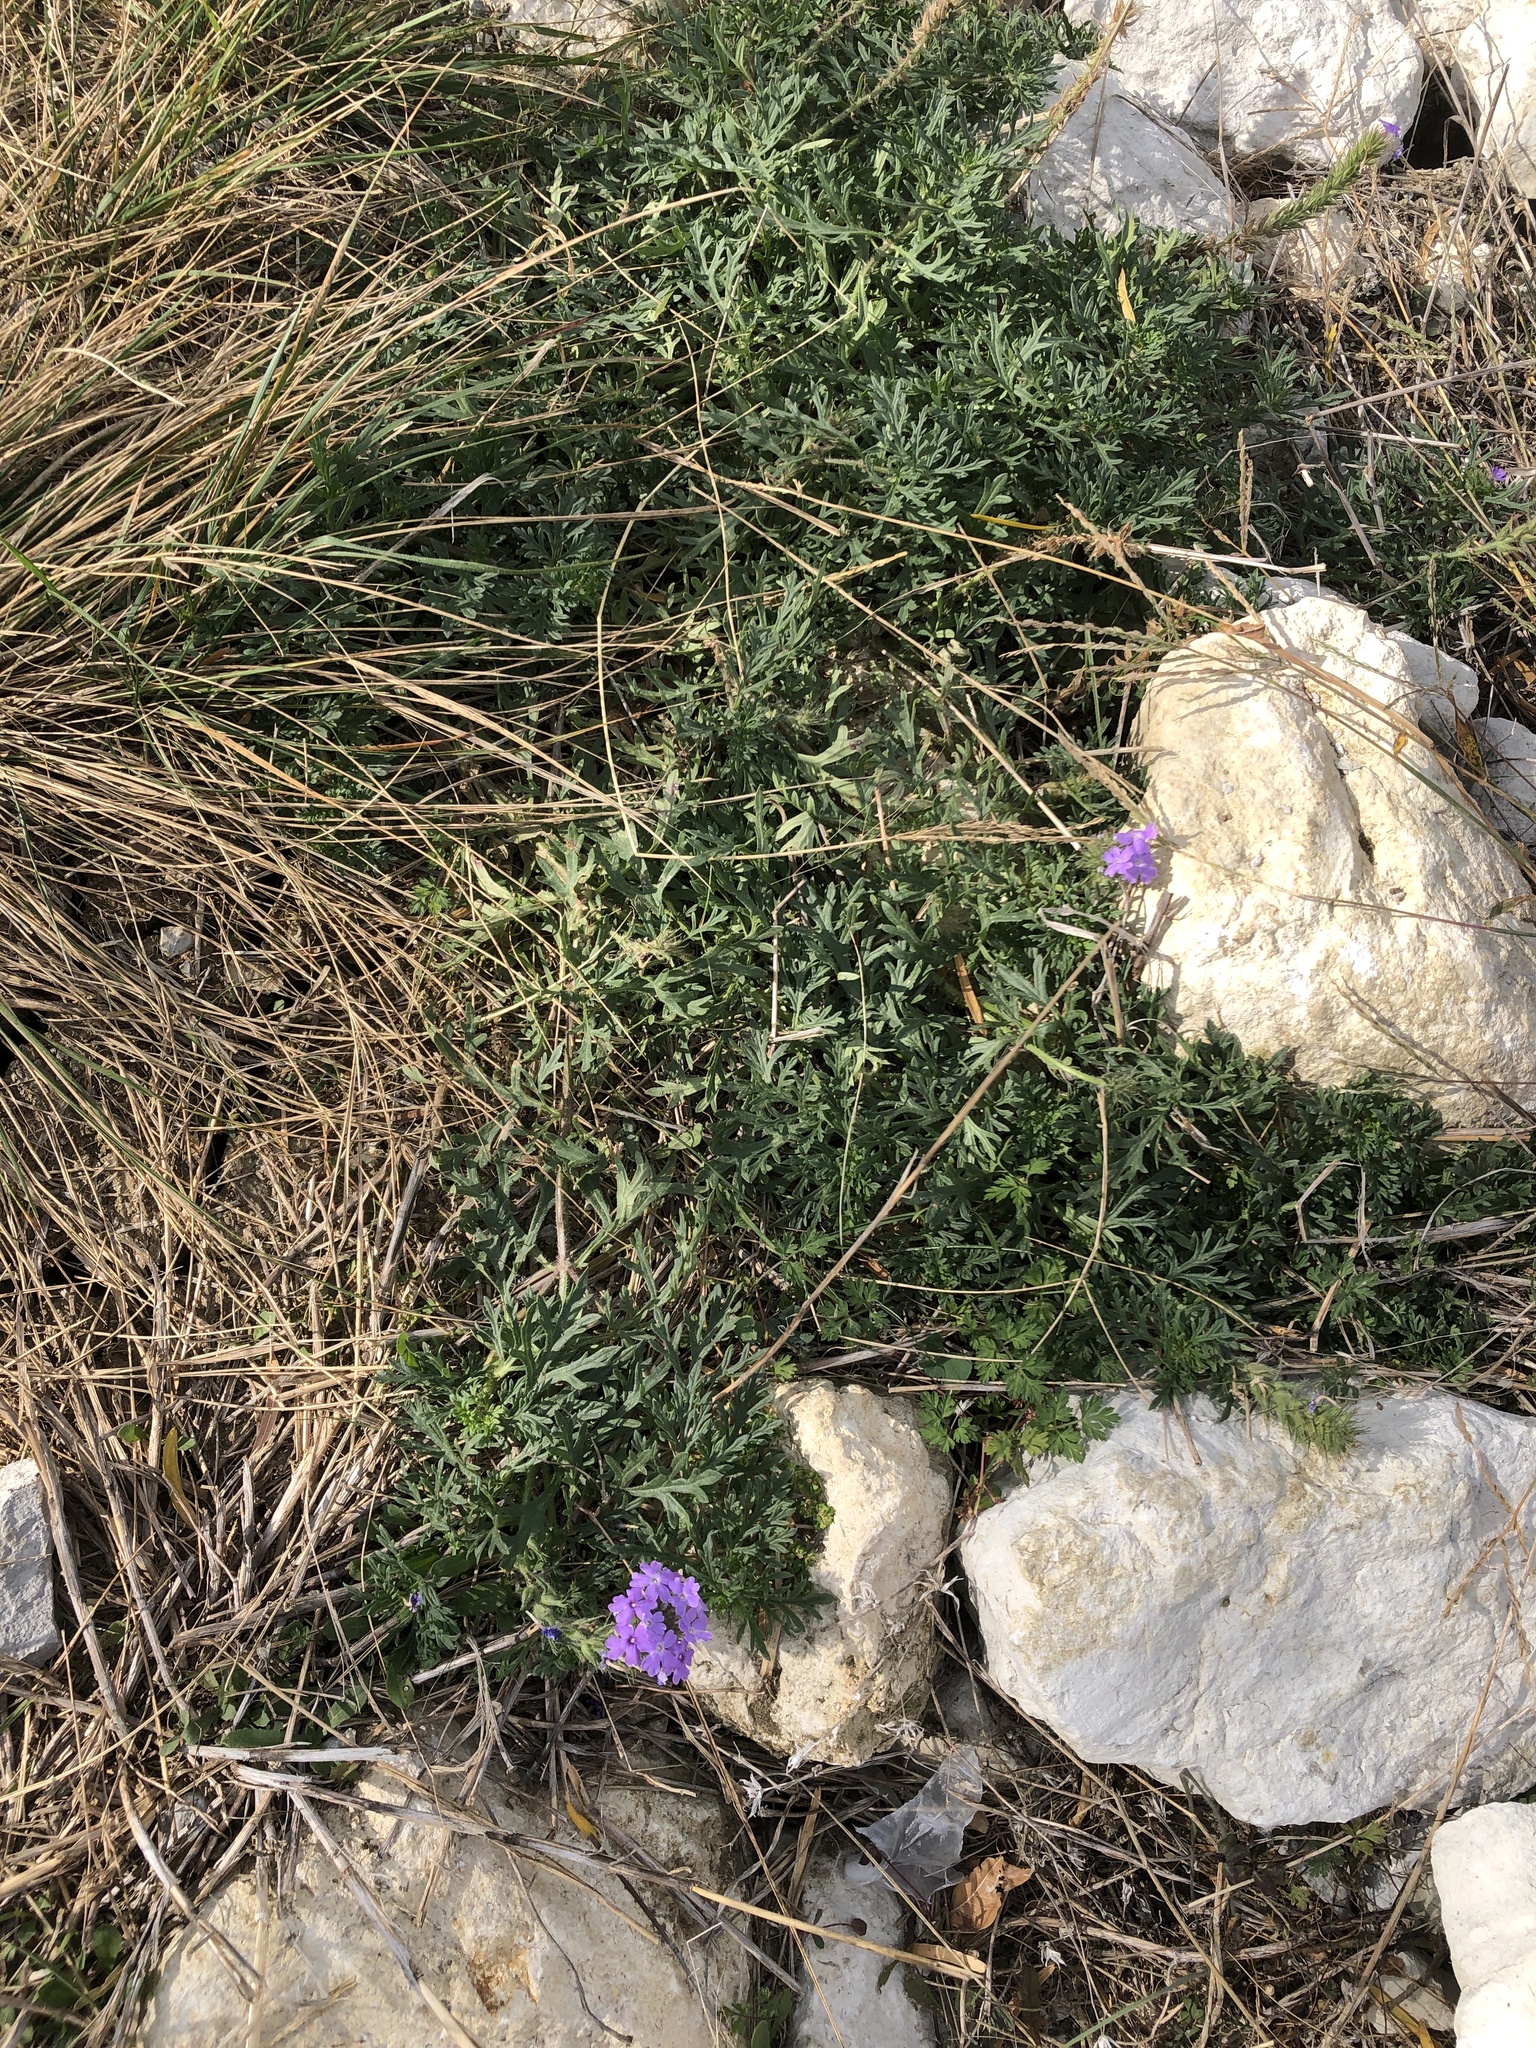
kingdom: Plantae
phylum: Tracheophyta
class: Magnoliopsida
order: Lamiales
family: Verbenaceae
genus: Verbena
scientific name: Verbena bipinnatifida
